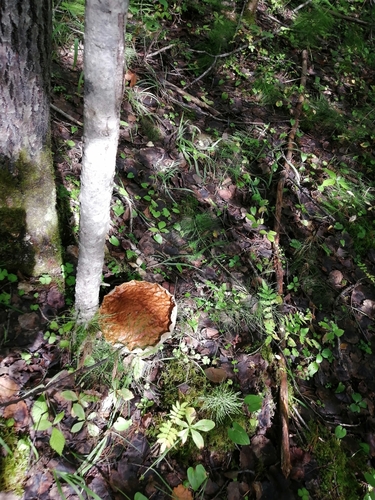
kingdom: Fungi
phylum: Basidiomycota
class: Agaricomycetes
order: Boletales
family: Boletaceae
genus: Boletus
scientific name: Boletus edulis
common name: Cep
